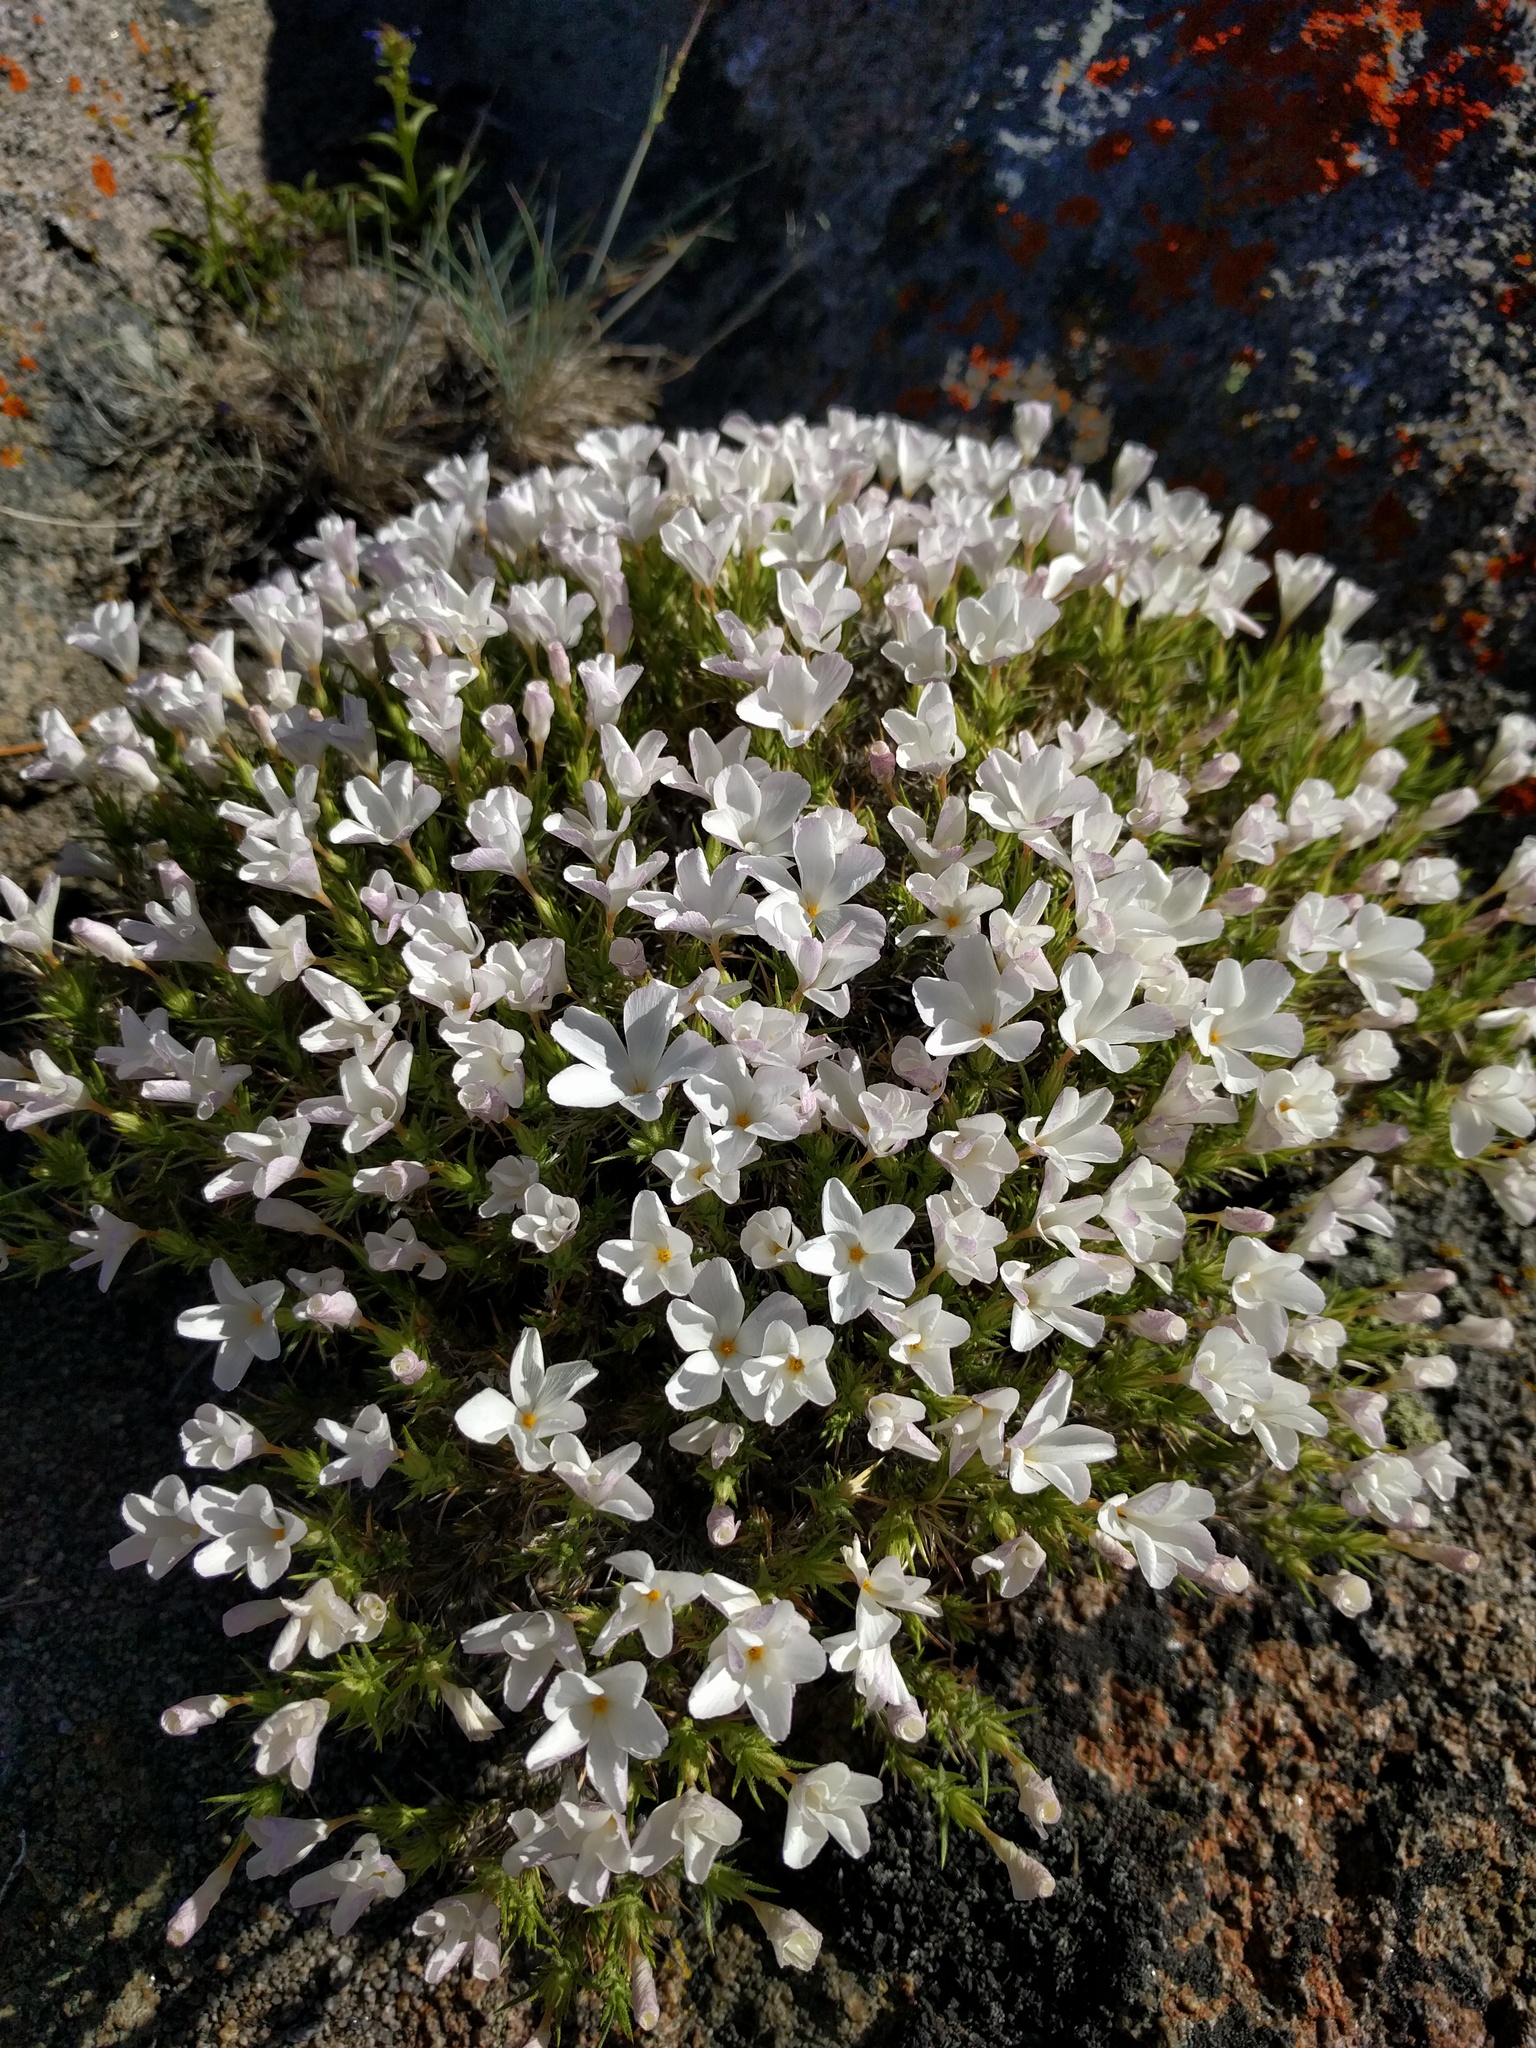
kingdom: Plantae
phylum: Tracheophyta
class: Magnoliopsida
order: Ericales
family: Polemoniaceae
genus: Linanthus
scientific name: Linanthus pungens
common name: Granite prickly phlox
